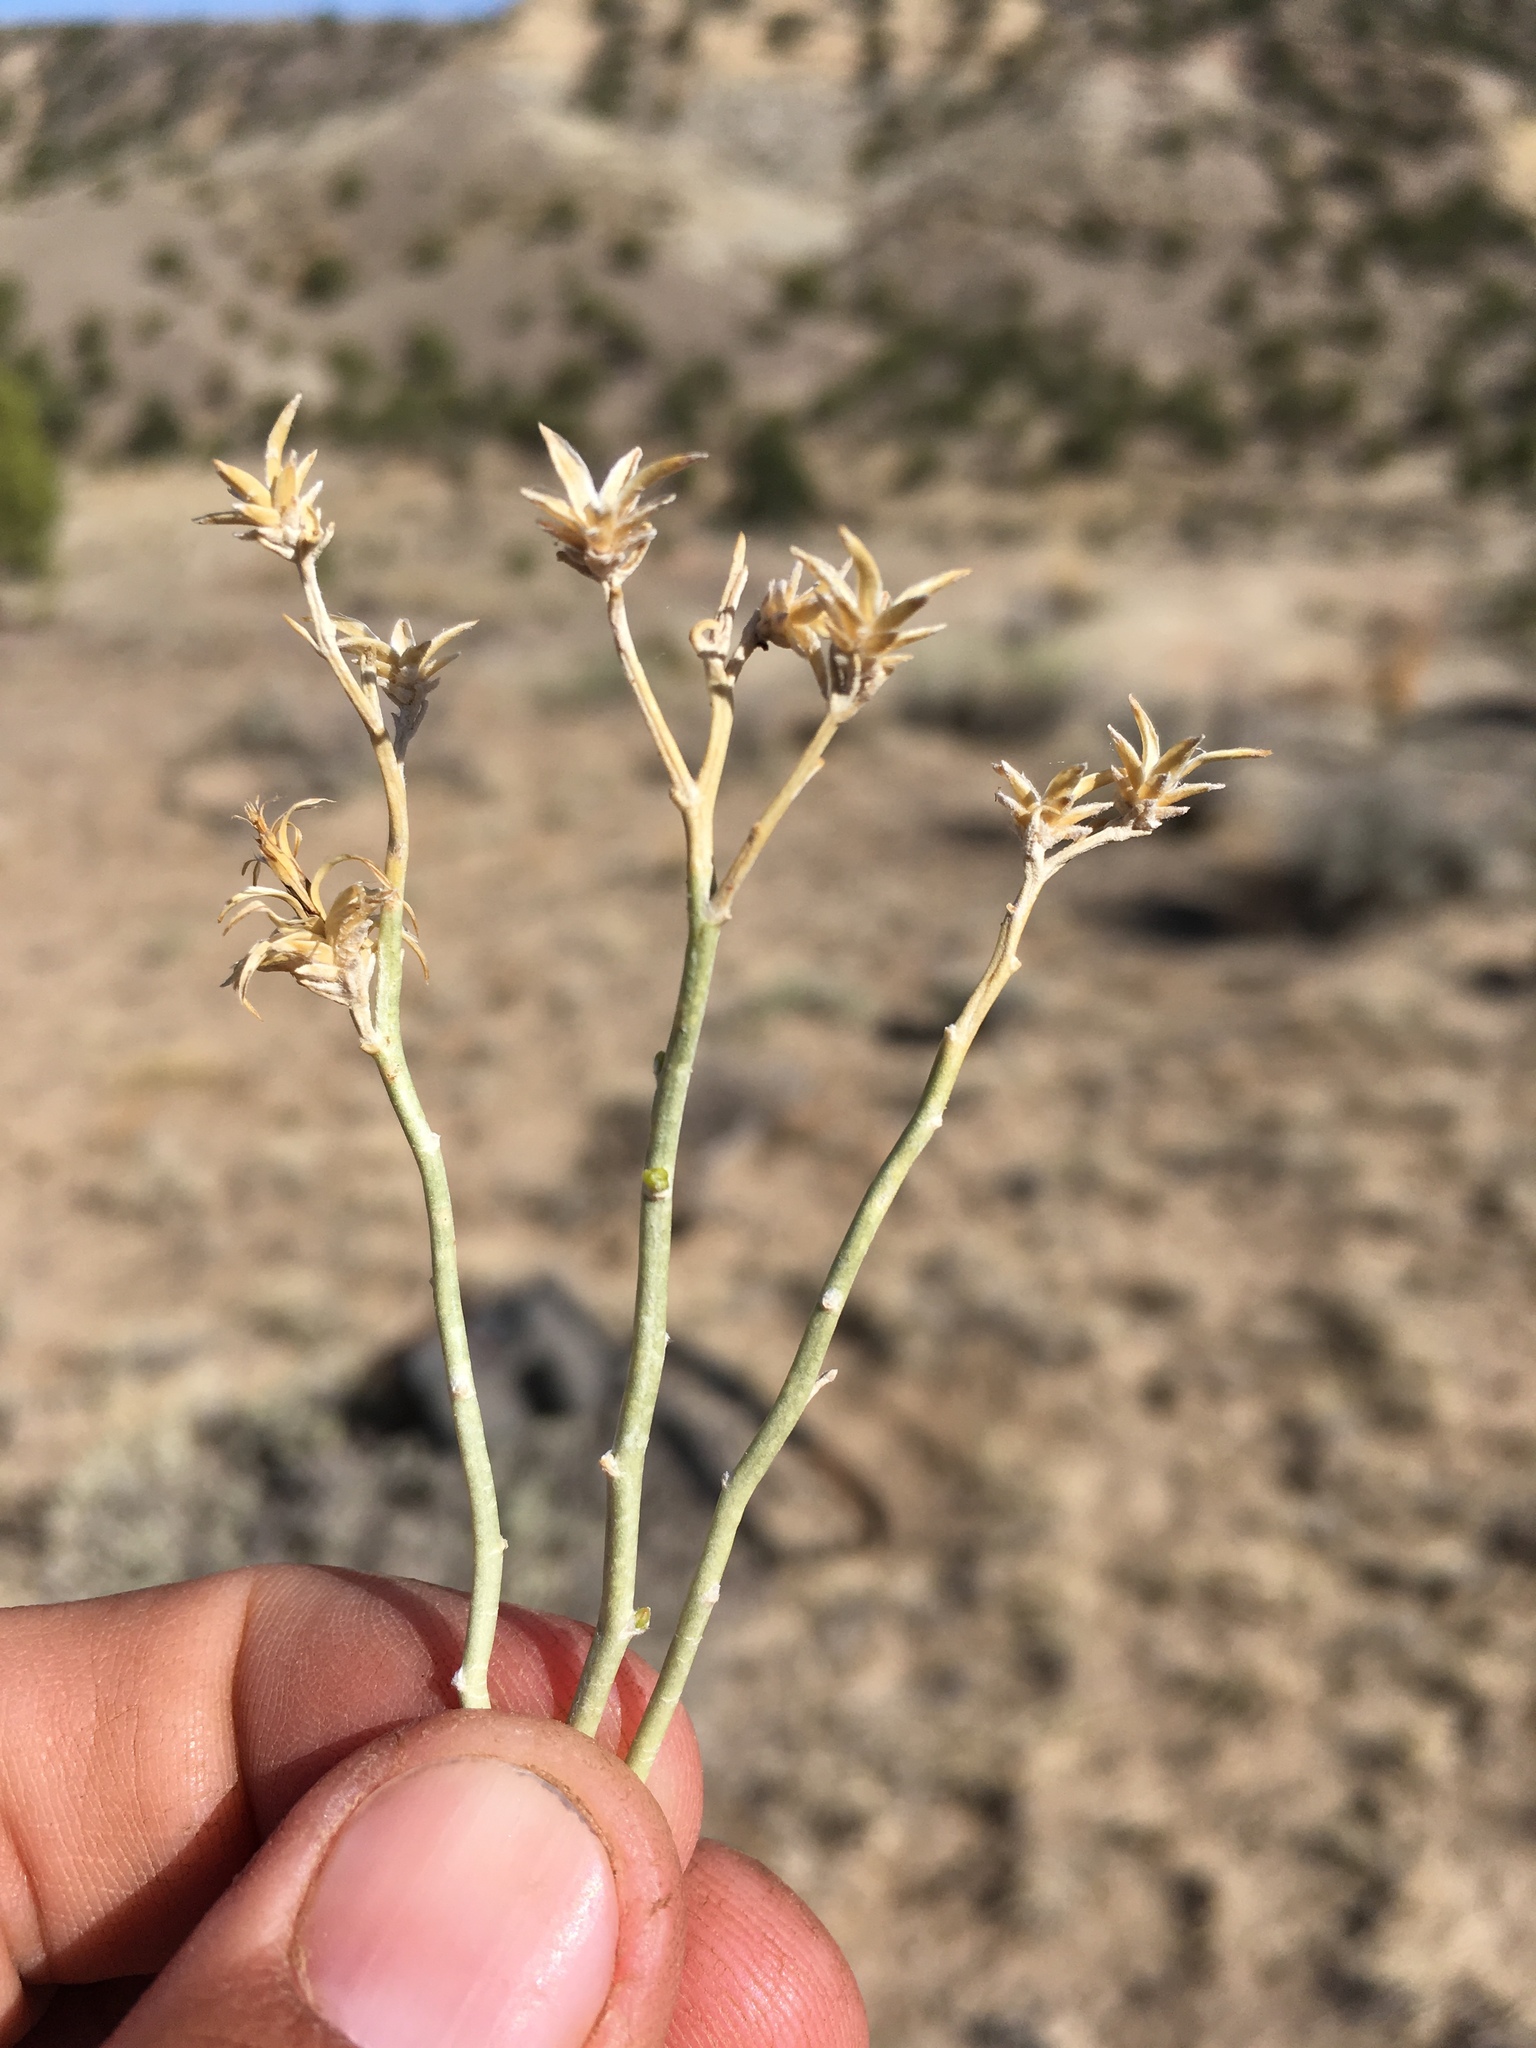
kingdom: Plantae
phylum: Tracheophyta
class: Magnoliopsida
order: Asterales
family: Asteraceae
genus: Ericameria
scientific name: Ericameria nauseosa
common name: Rubber rabbitbrush
